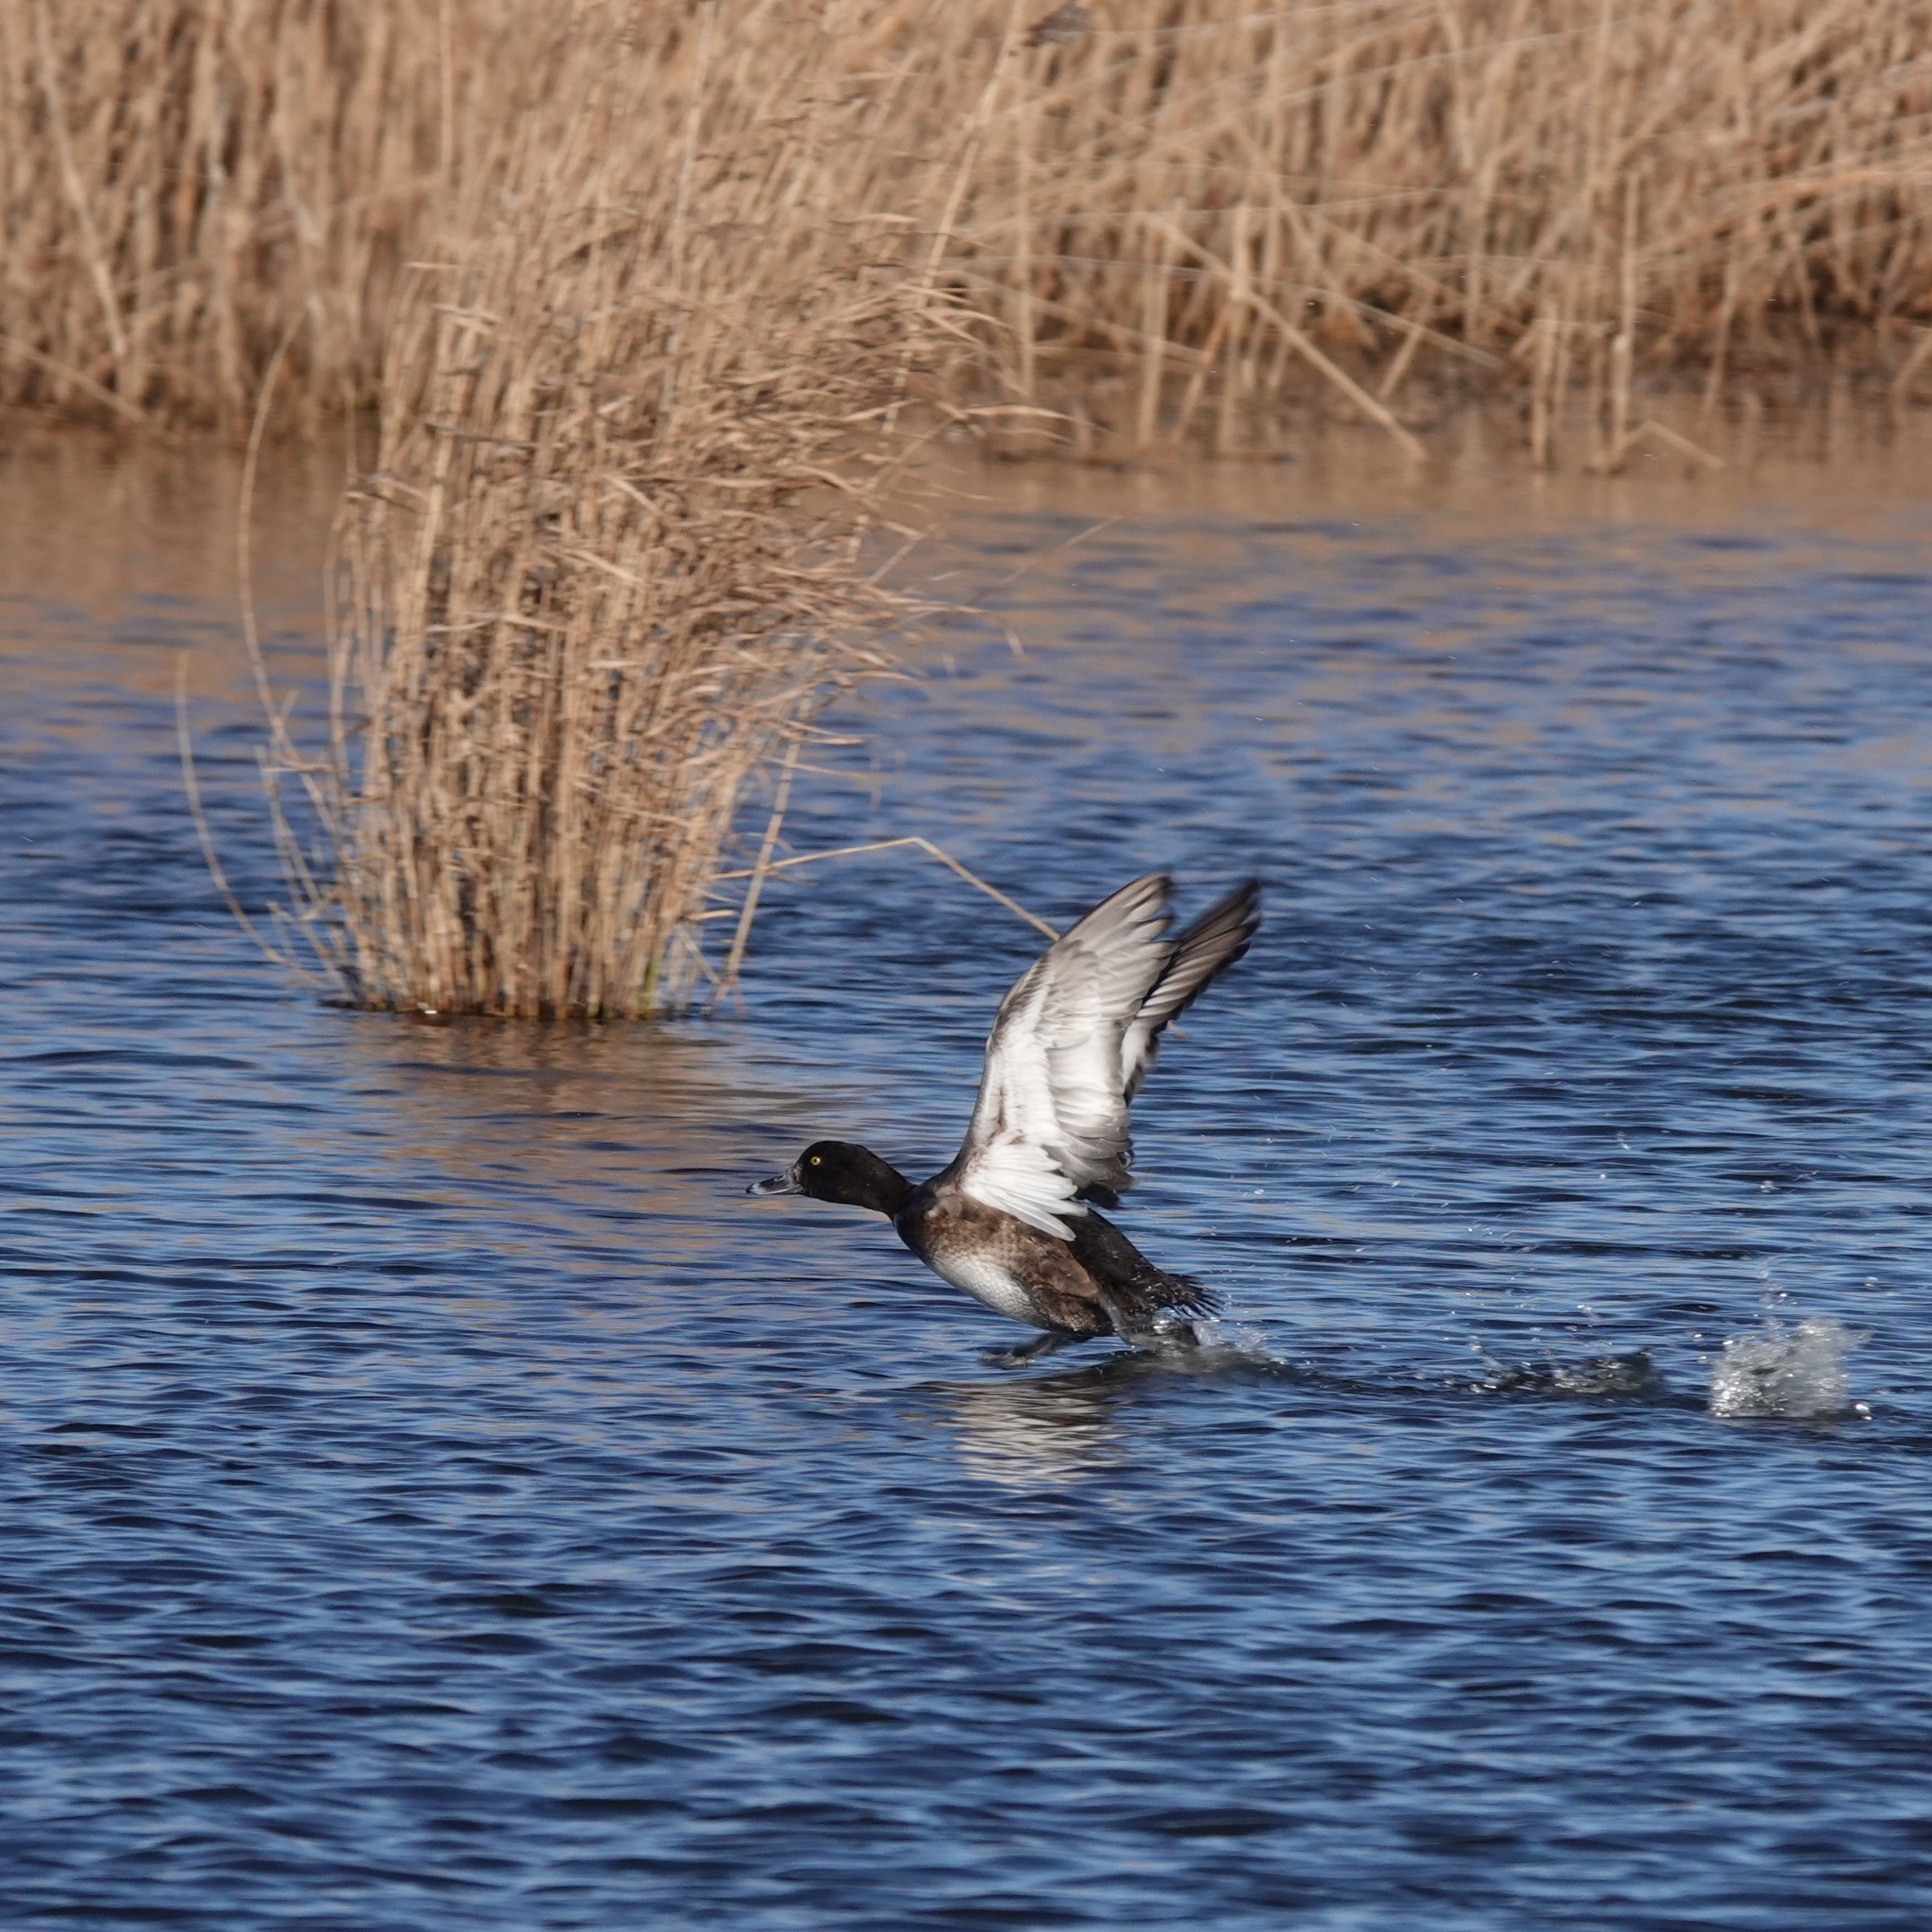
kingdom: Animalia
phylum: Chordata
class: Aves
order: Anseriformes
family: Anatidae
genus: Aythya
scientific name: Aythya fuligula
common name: Tufted duck
